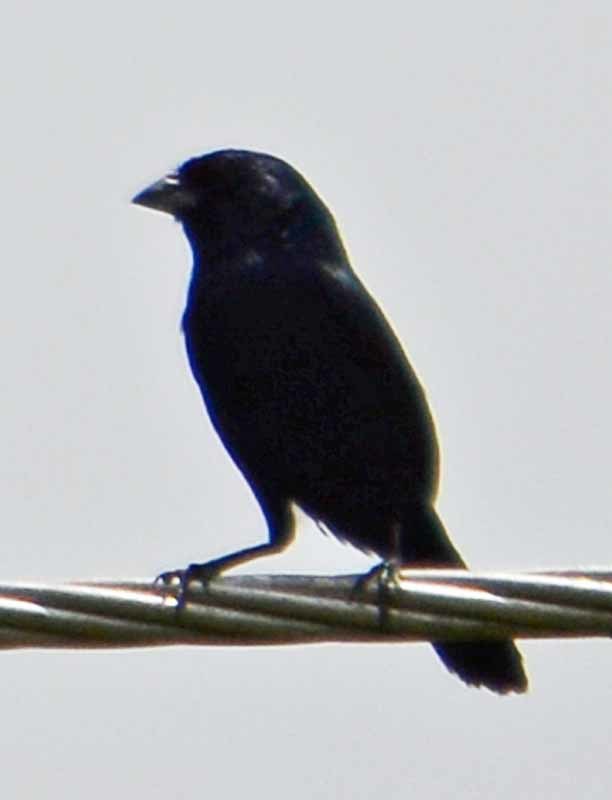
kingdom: Animalia
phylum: Chordata
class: Aves
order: Passeriformes
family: Thraupidae
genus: Volatinia
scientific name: Volatinia jacarina
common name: Blue-black grassquit
